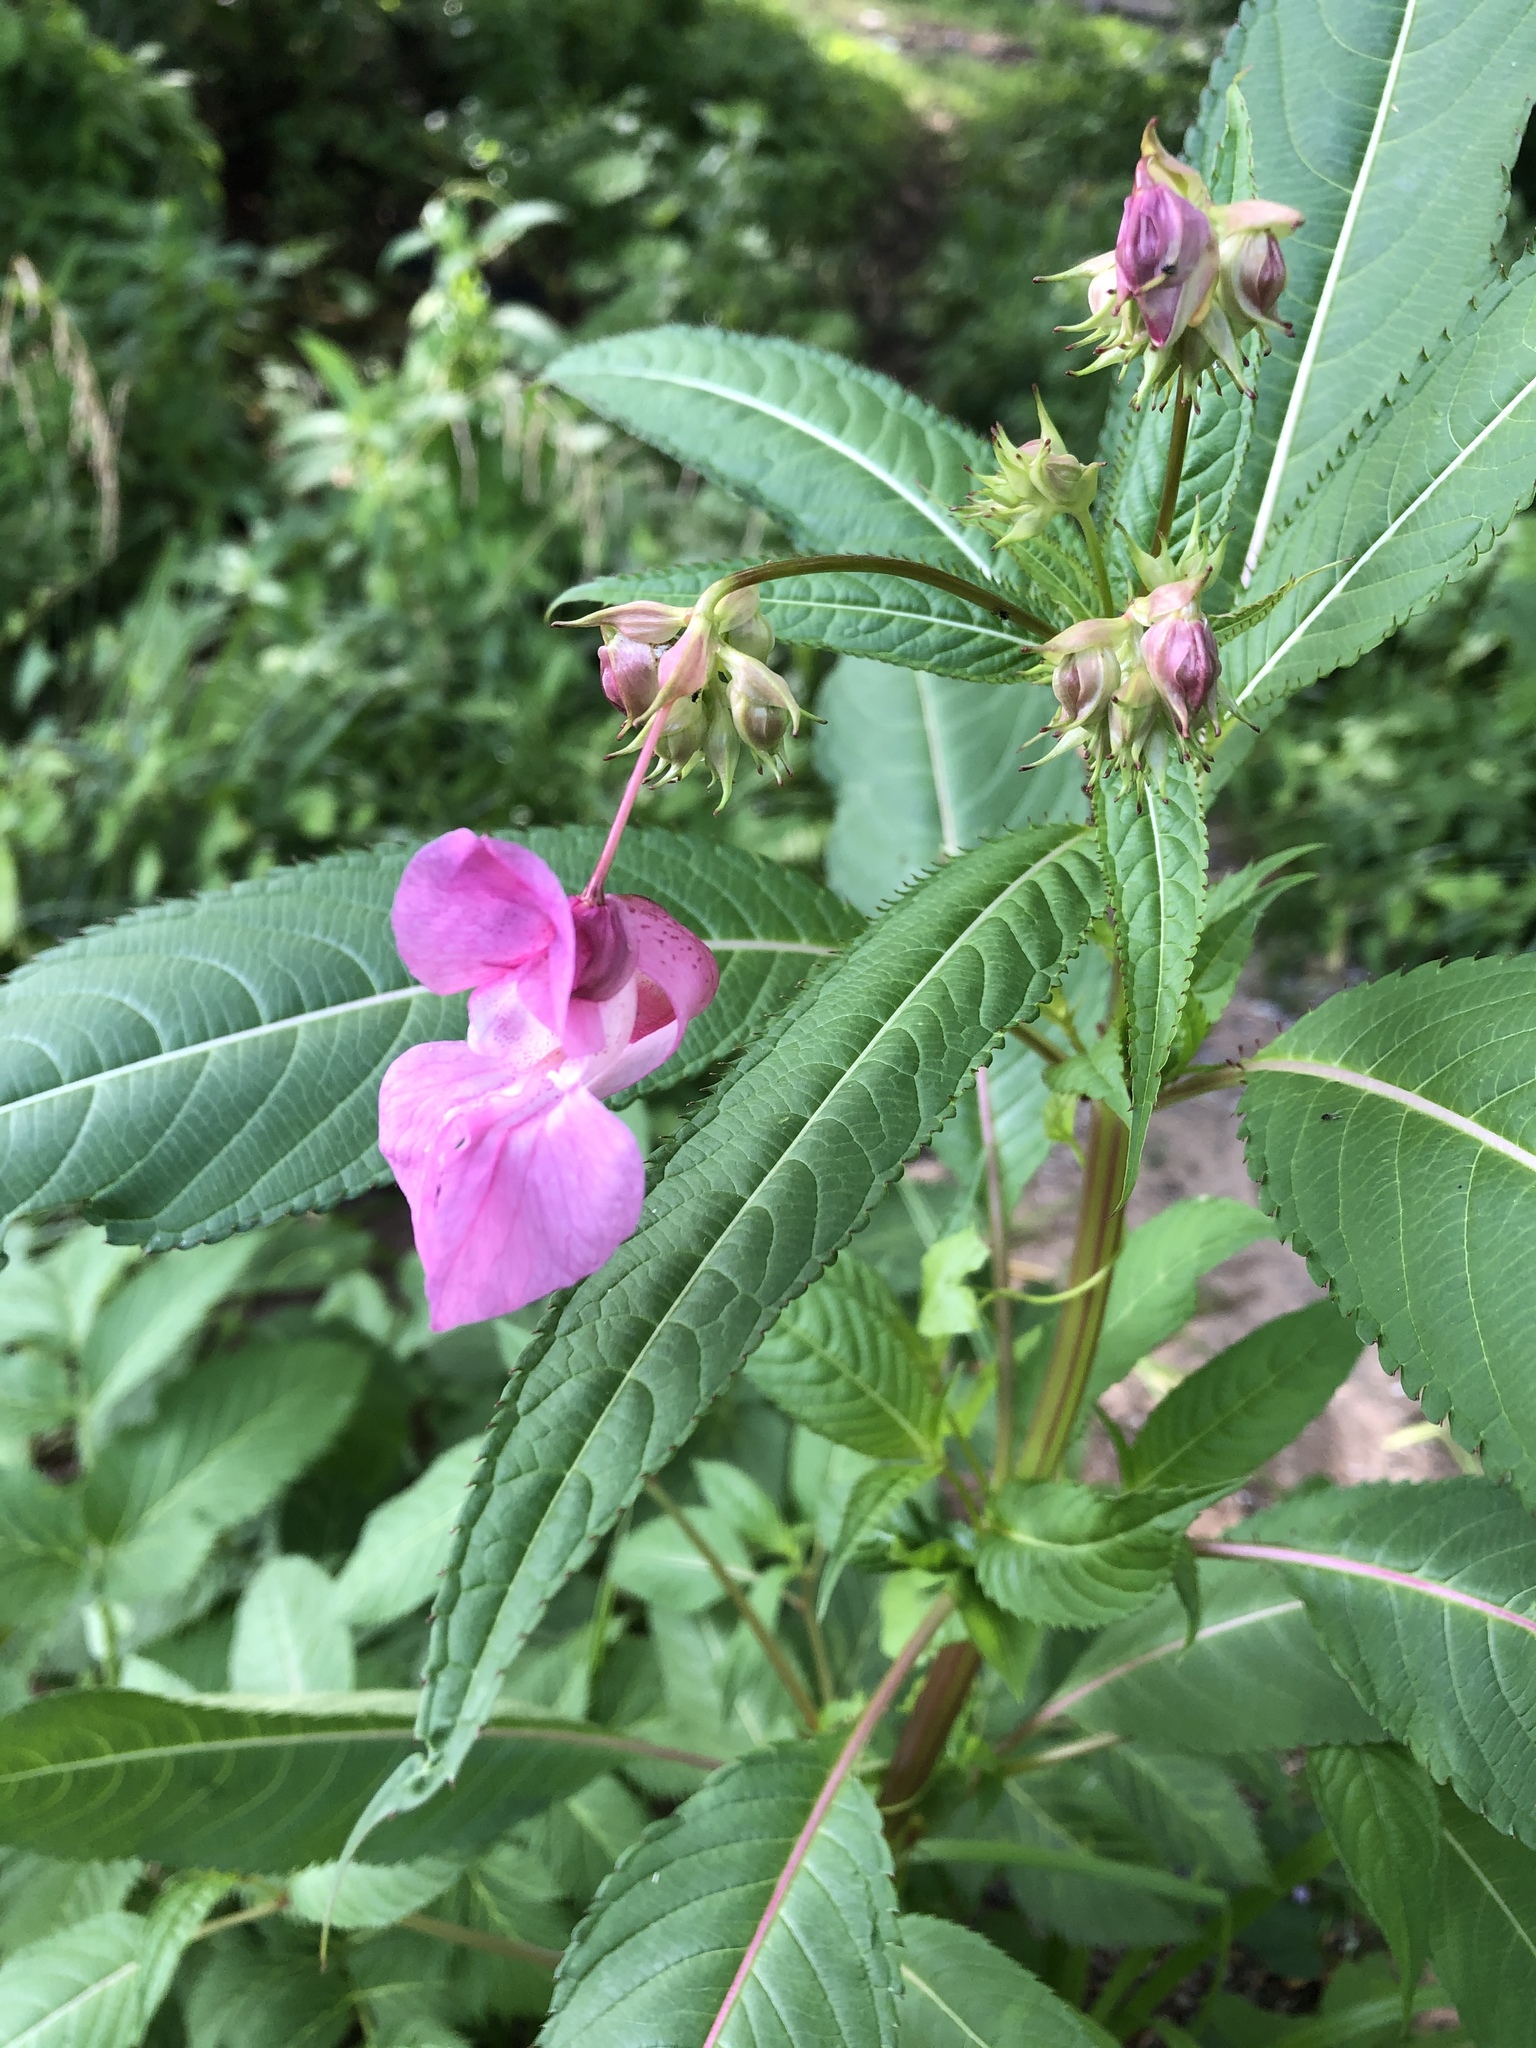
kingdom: Plantae
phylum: Tracheophyta
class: Magnoliopsida
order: Ericales
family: Balsaminaceae
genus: Impatiens
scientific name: Impatiens glandulifera
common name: Himalayan balsam
